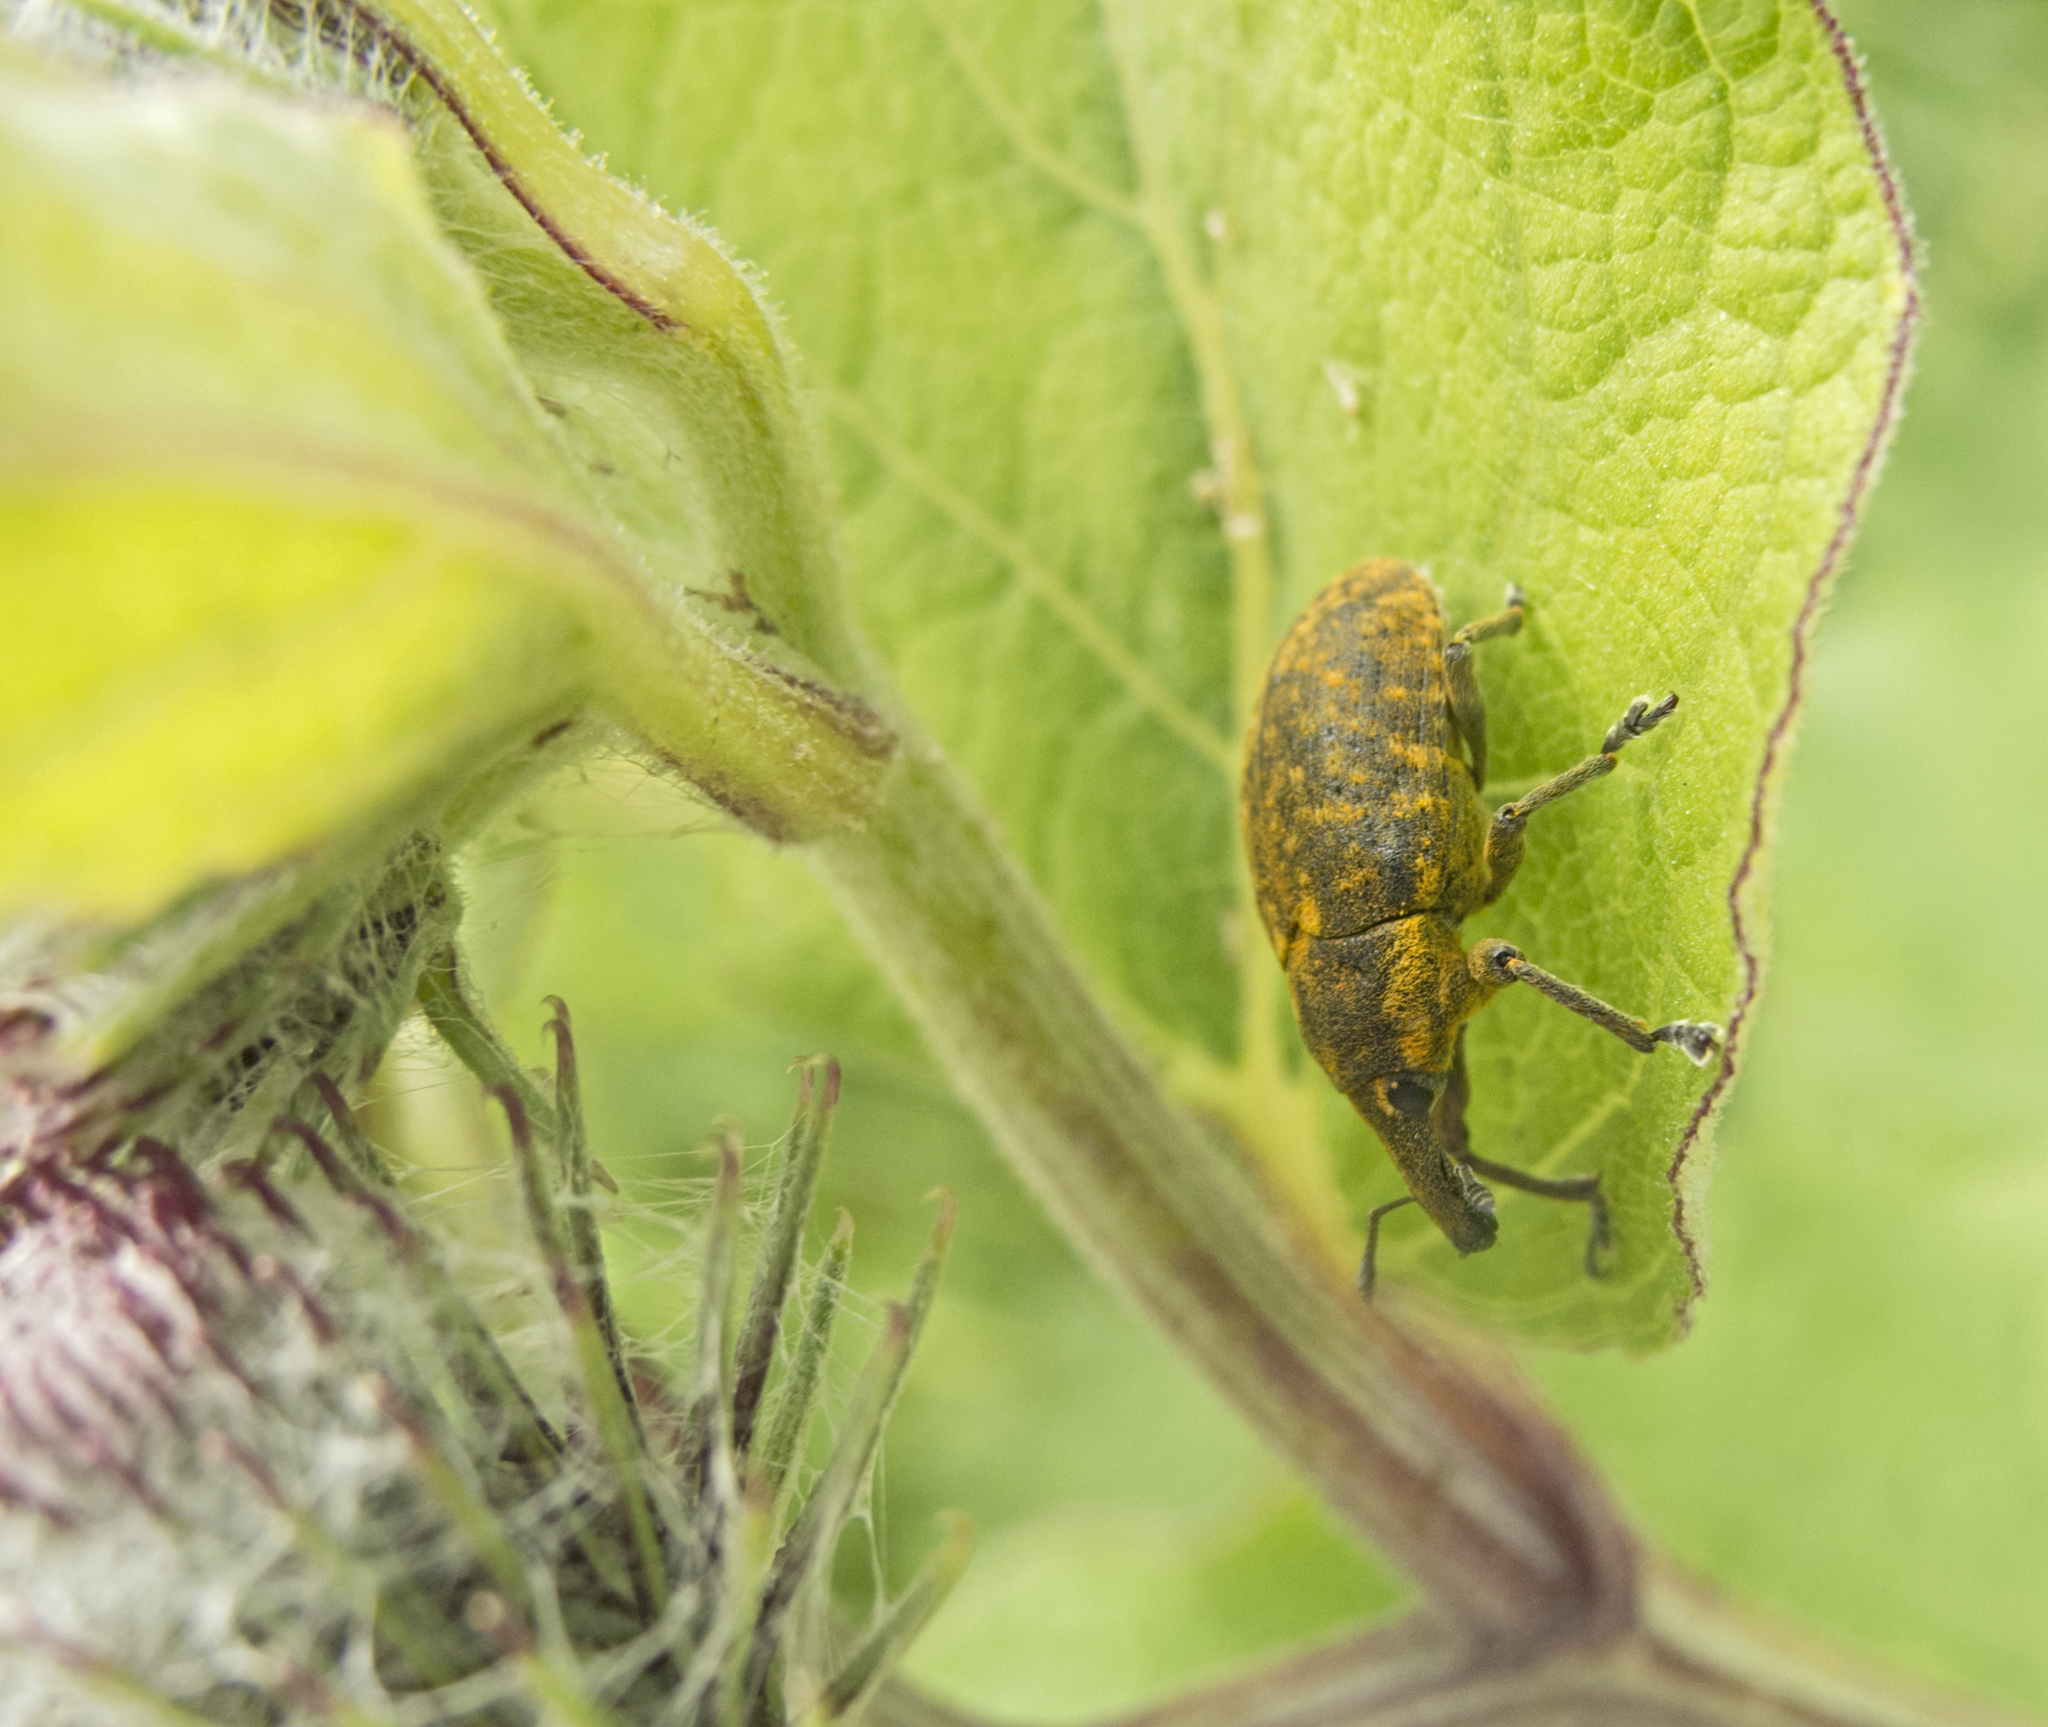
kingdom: Animalia
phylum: Arthropoda
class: Insecta
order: Coleoptera
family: Curculionidae
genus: Larinus
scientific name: Larinus sturnus
